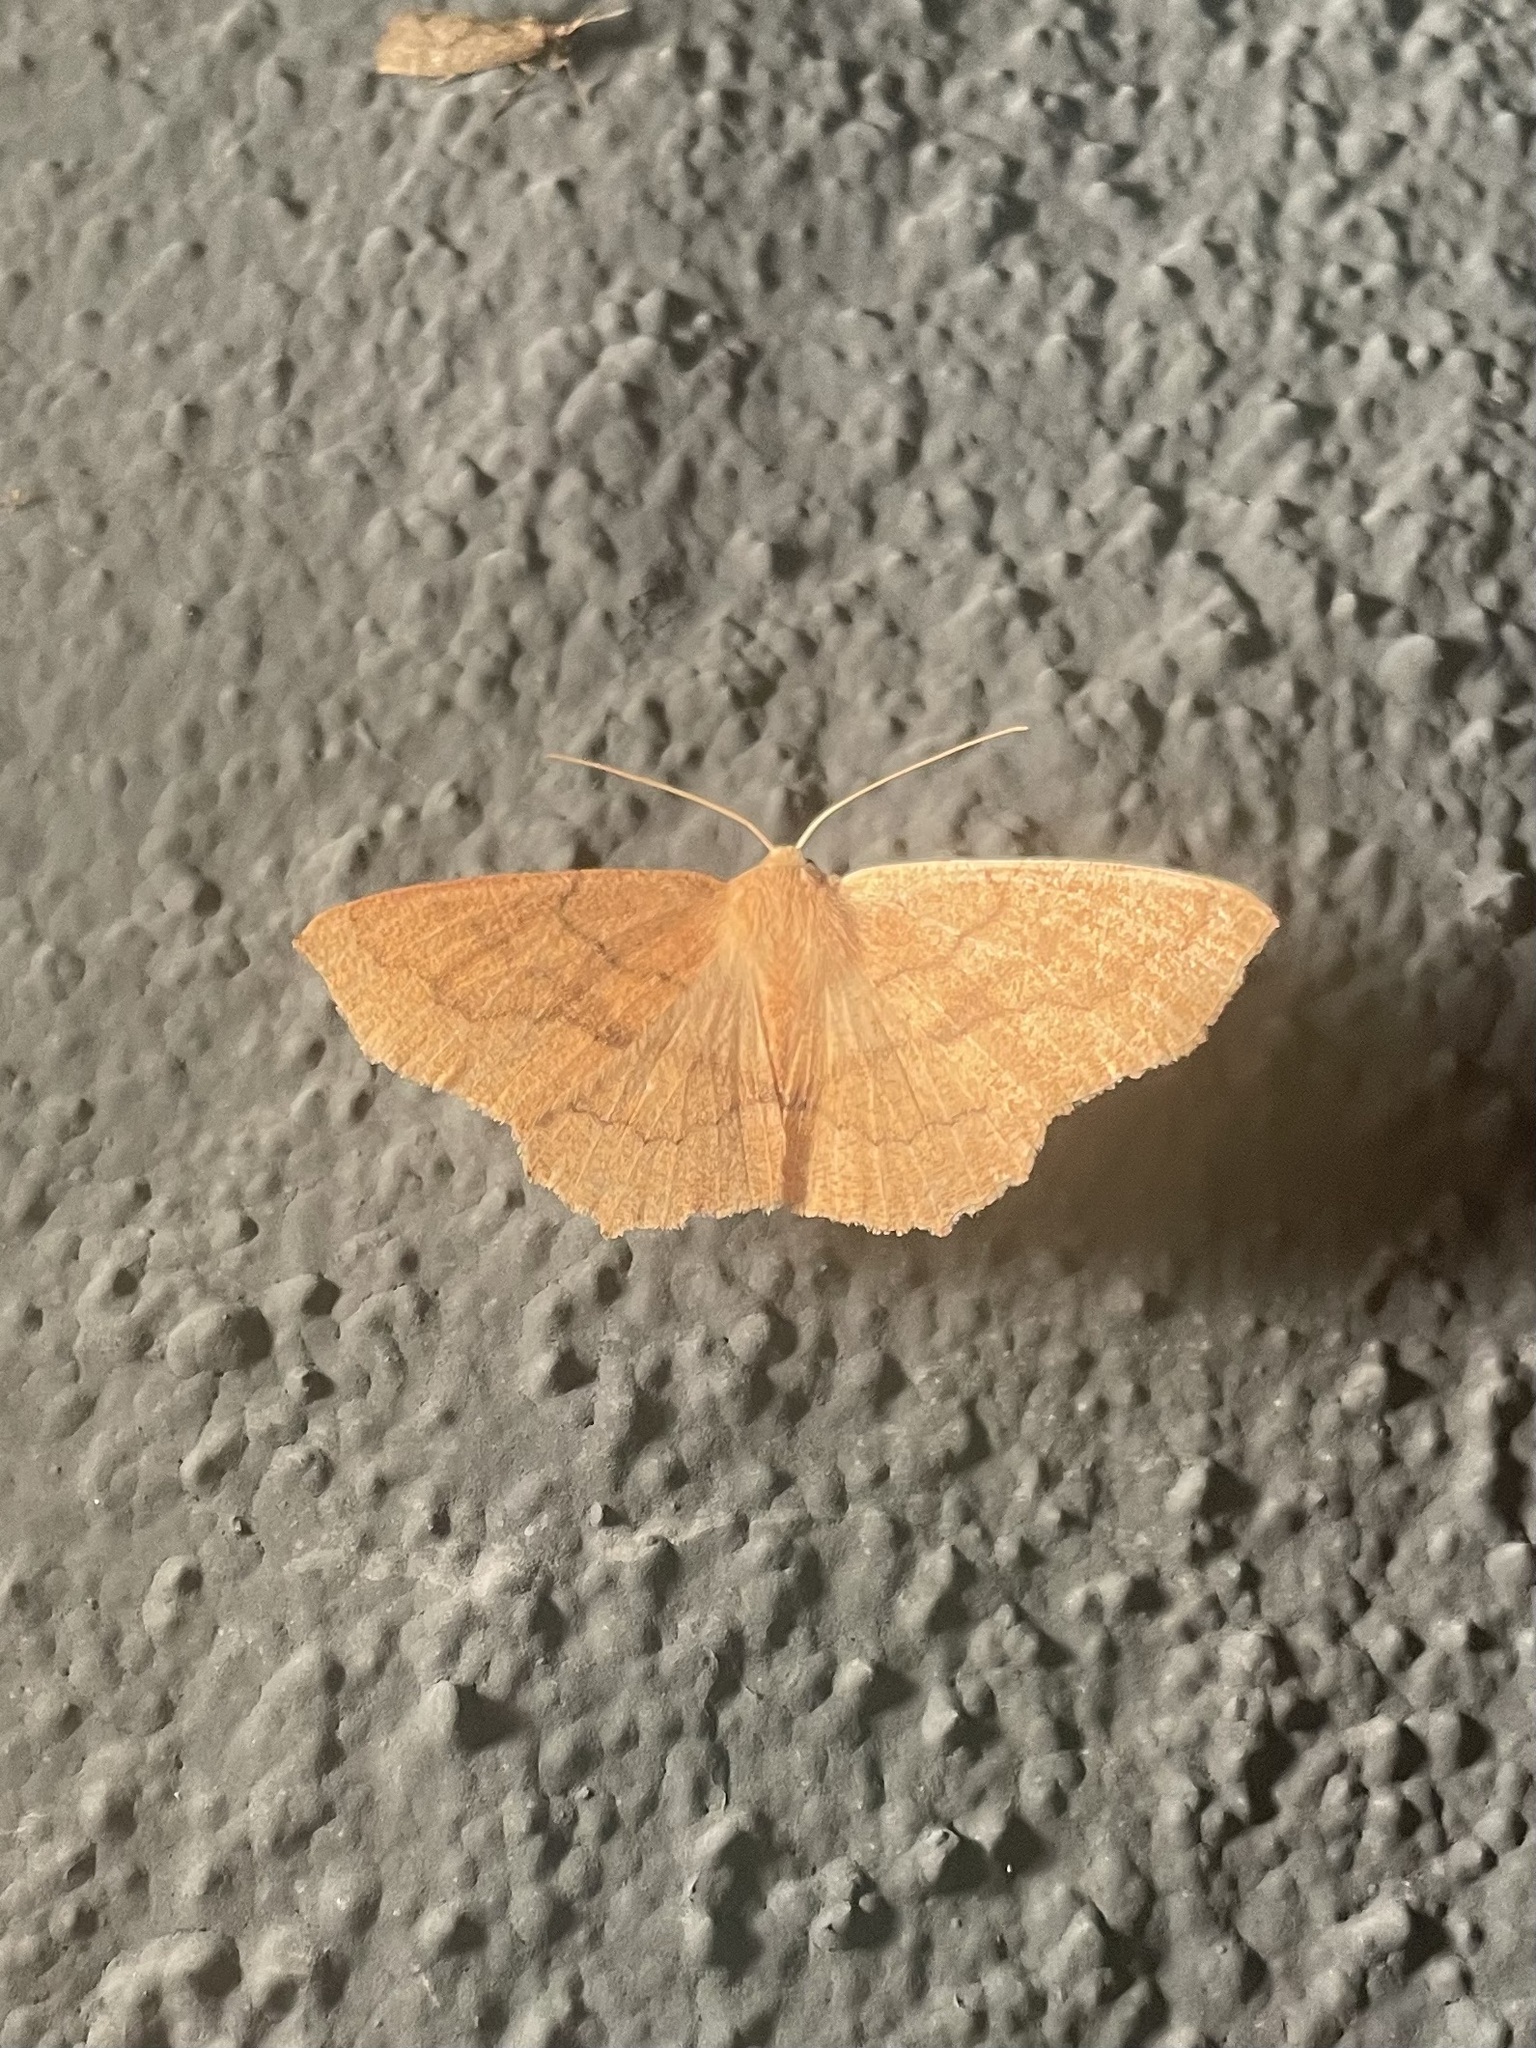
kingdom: Animalia
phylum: Arthropoda
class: Insecta
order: Lepidoptera
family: Geometridae
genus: Sabulodes
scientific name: Sabulodes aegrotata
